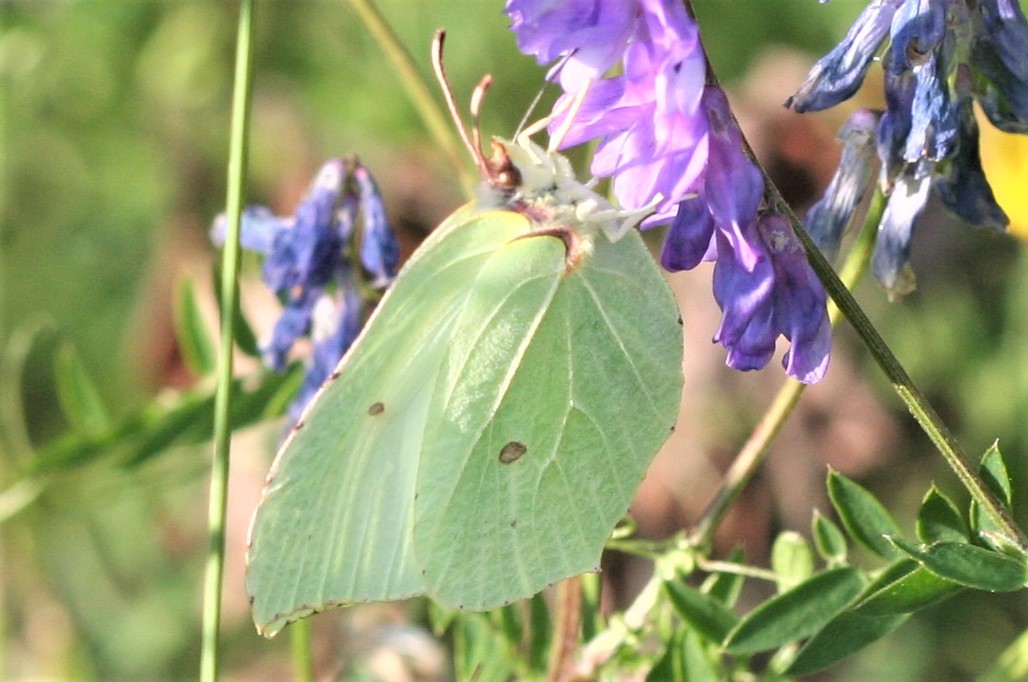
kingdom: Animalia
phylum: Arthropoda
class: Insecta
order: Lepidoptera
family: Pieridae
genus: Gonepteryx
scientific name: Gonepteryx rhamni
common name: Brimstone
